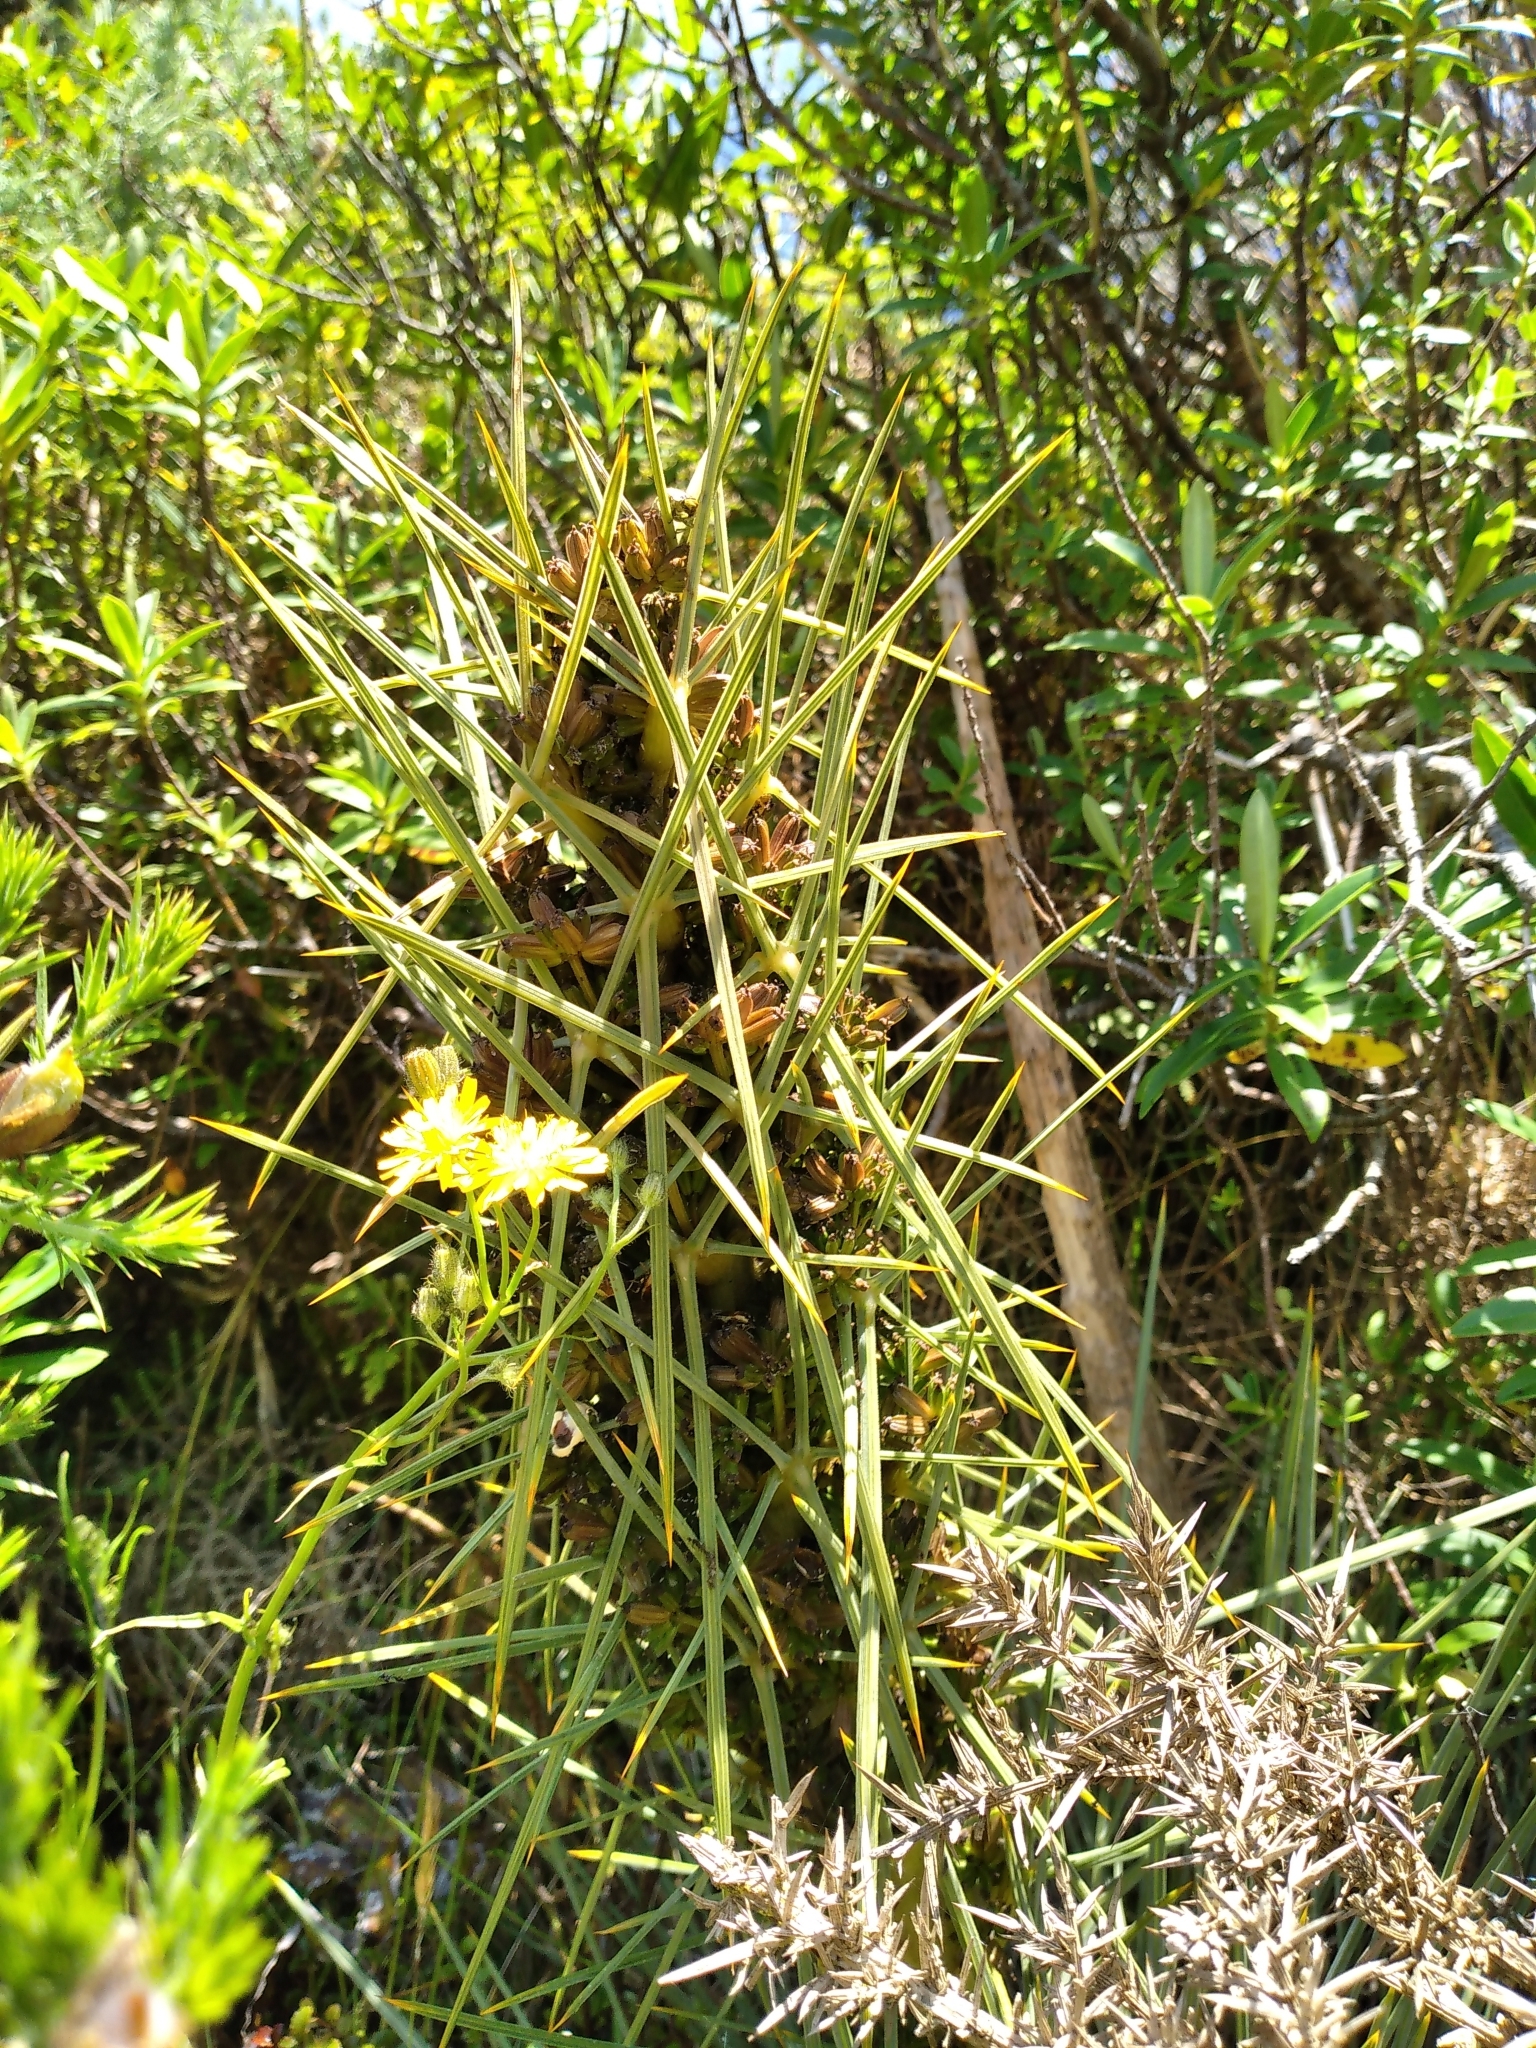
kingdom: Plantae
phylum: Tracheophyta
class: Magnoliopsida
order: Apiales
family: Apiaceae
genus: Aciphylla
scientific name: Aciphylla squarrosa
